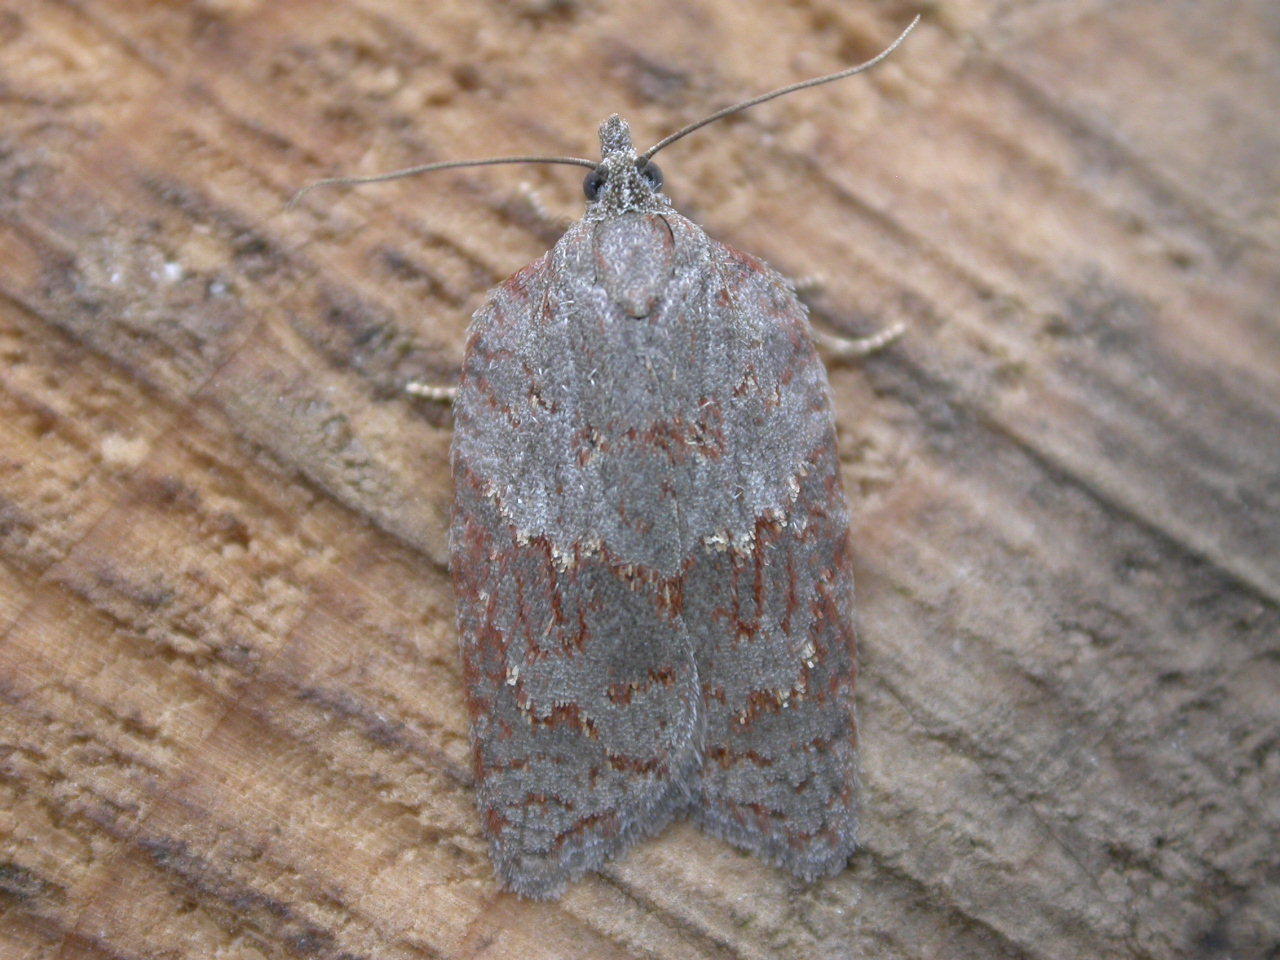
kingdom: Animalia
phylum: Arthropoda
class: Insecta
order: Lepidoptera
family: Tortricidae
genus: Acleris
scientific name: Acleris sparsana
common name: Ashy button
